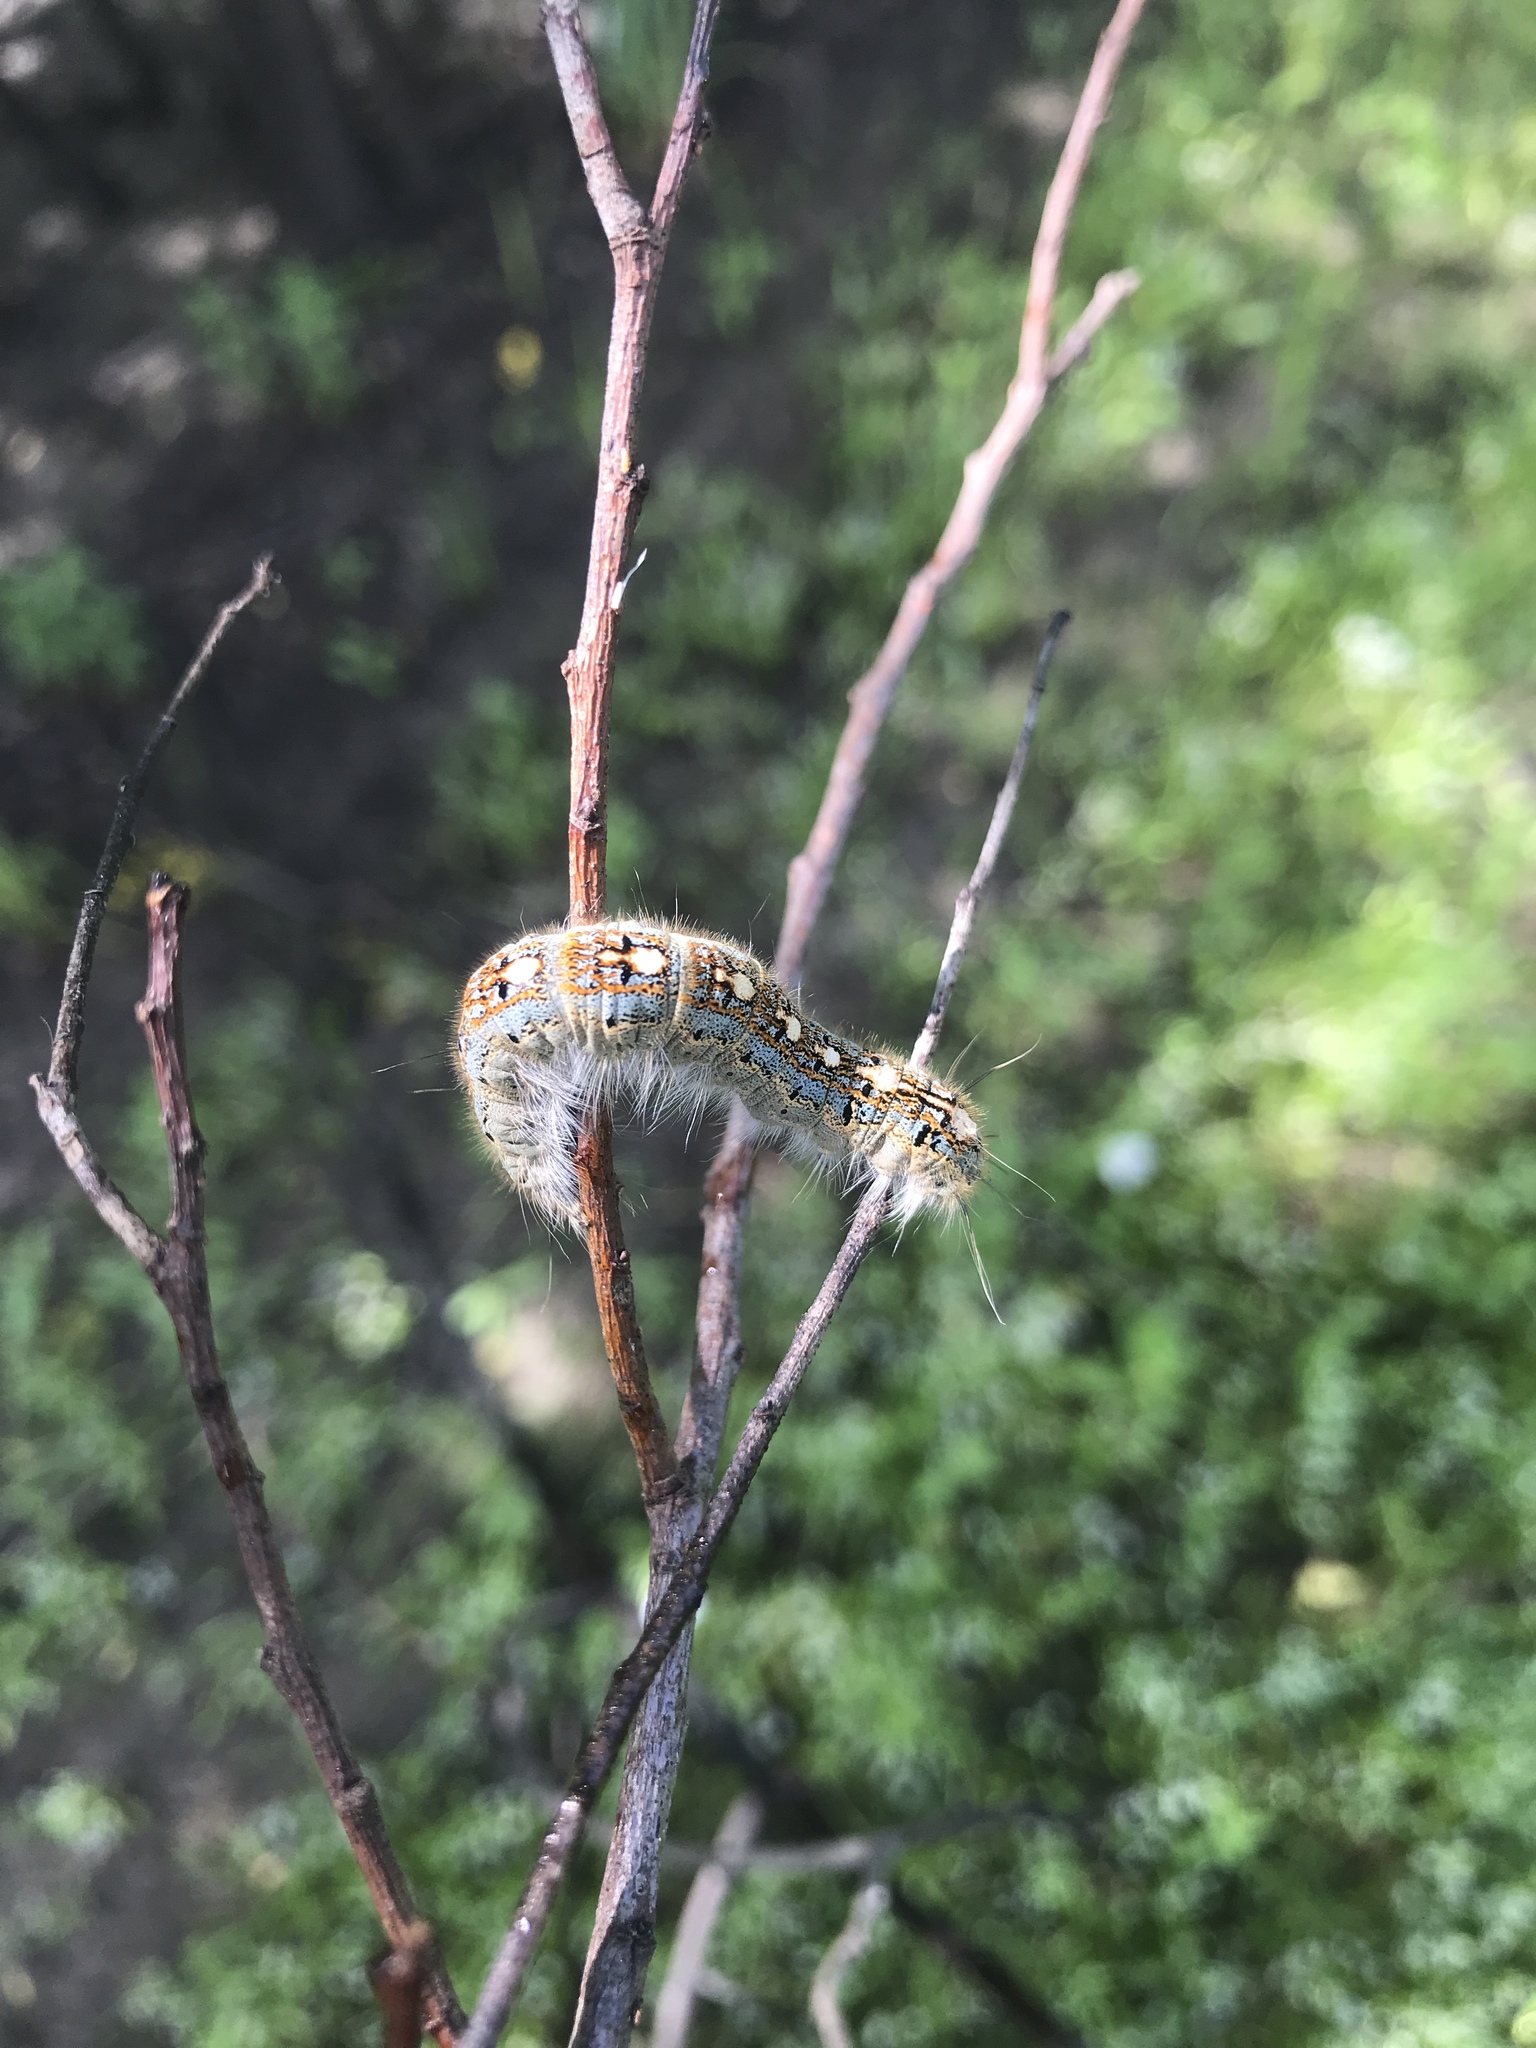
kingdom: Animalia
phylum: Arthropoda
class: Insecta
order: Lepidoptera
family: Lasiocampidae
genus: Malacosoma
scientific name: Malacosoma disstria
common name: Forest tent caterpillar
